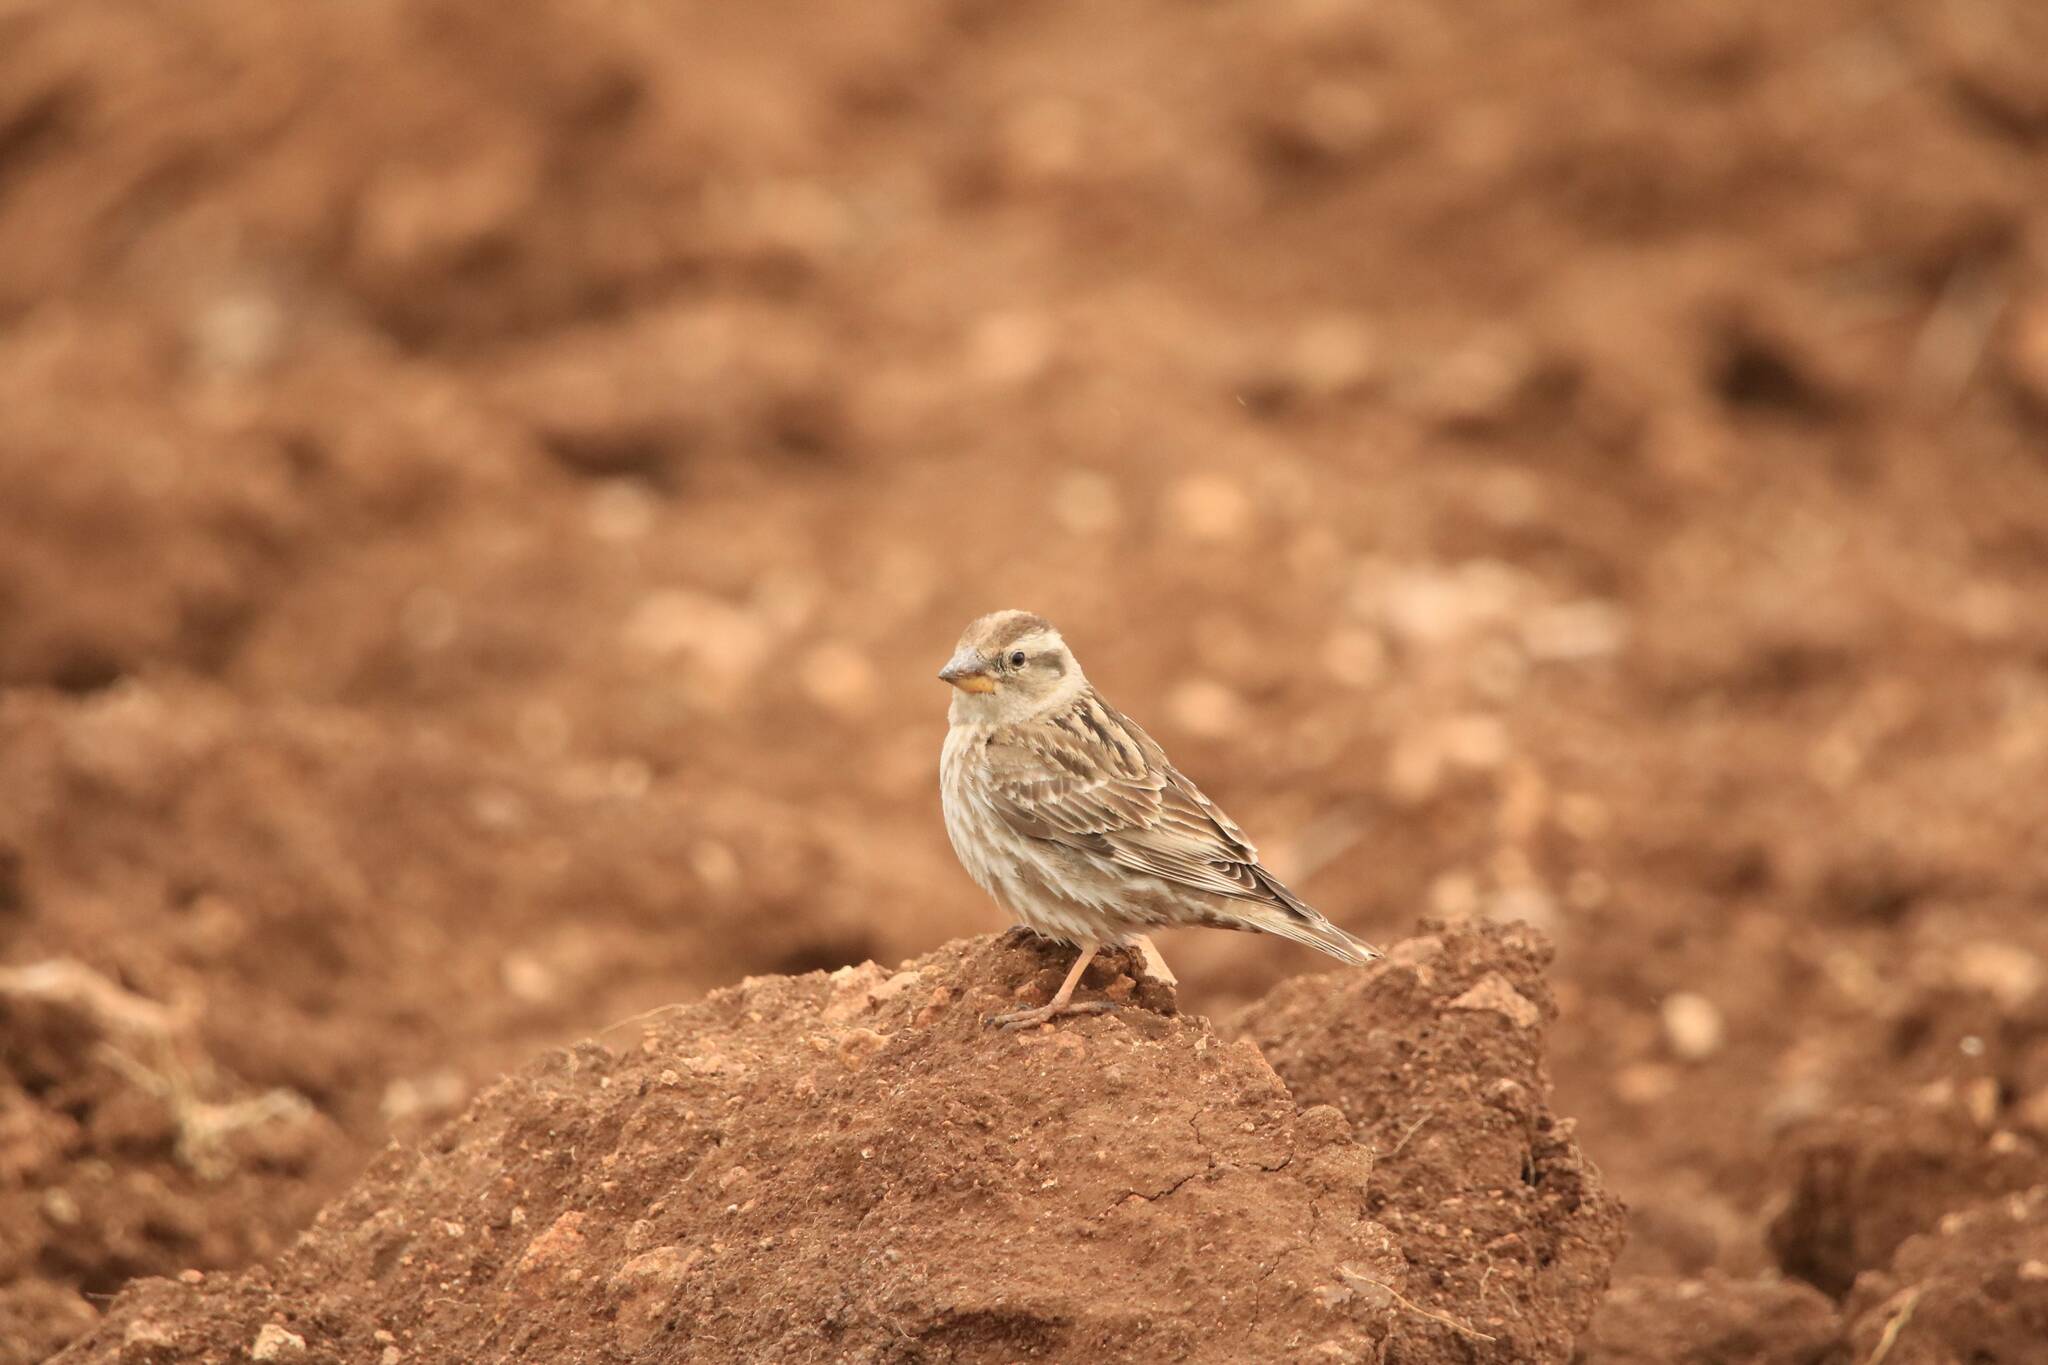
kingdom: Animalia
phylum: Chordata
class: Aves
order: Passeriformes
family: Passeridae
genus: Petronia
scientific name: Petronia petronia
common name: Rock sparrow
